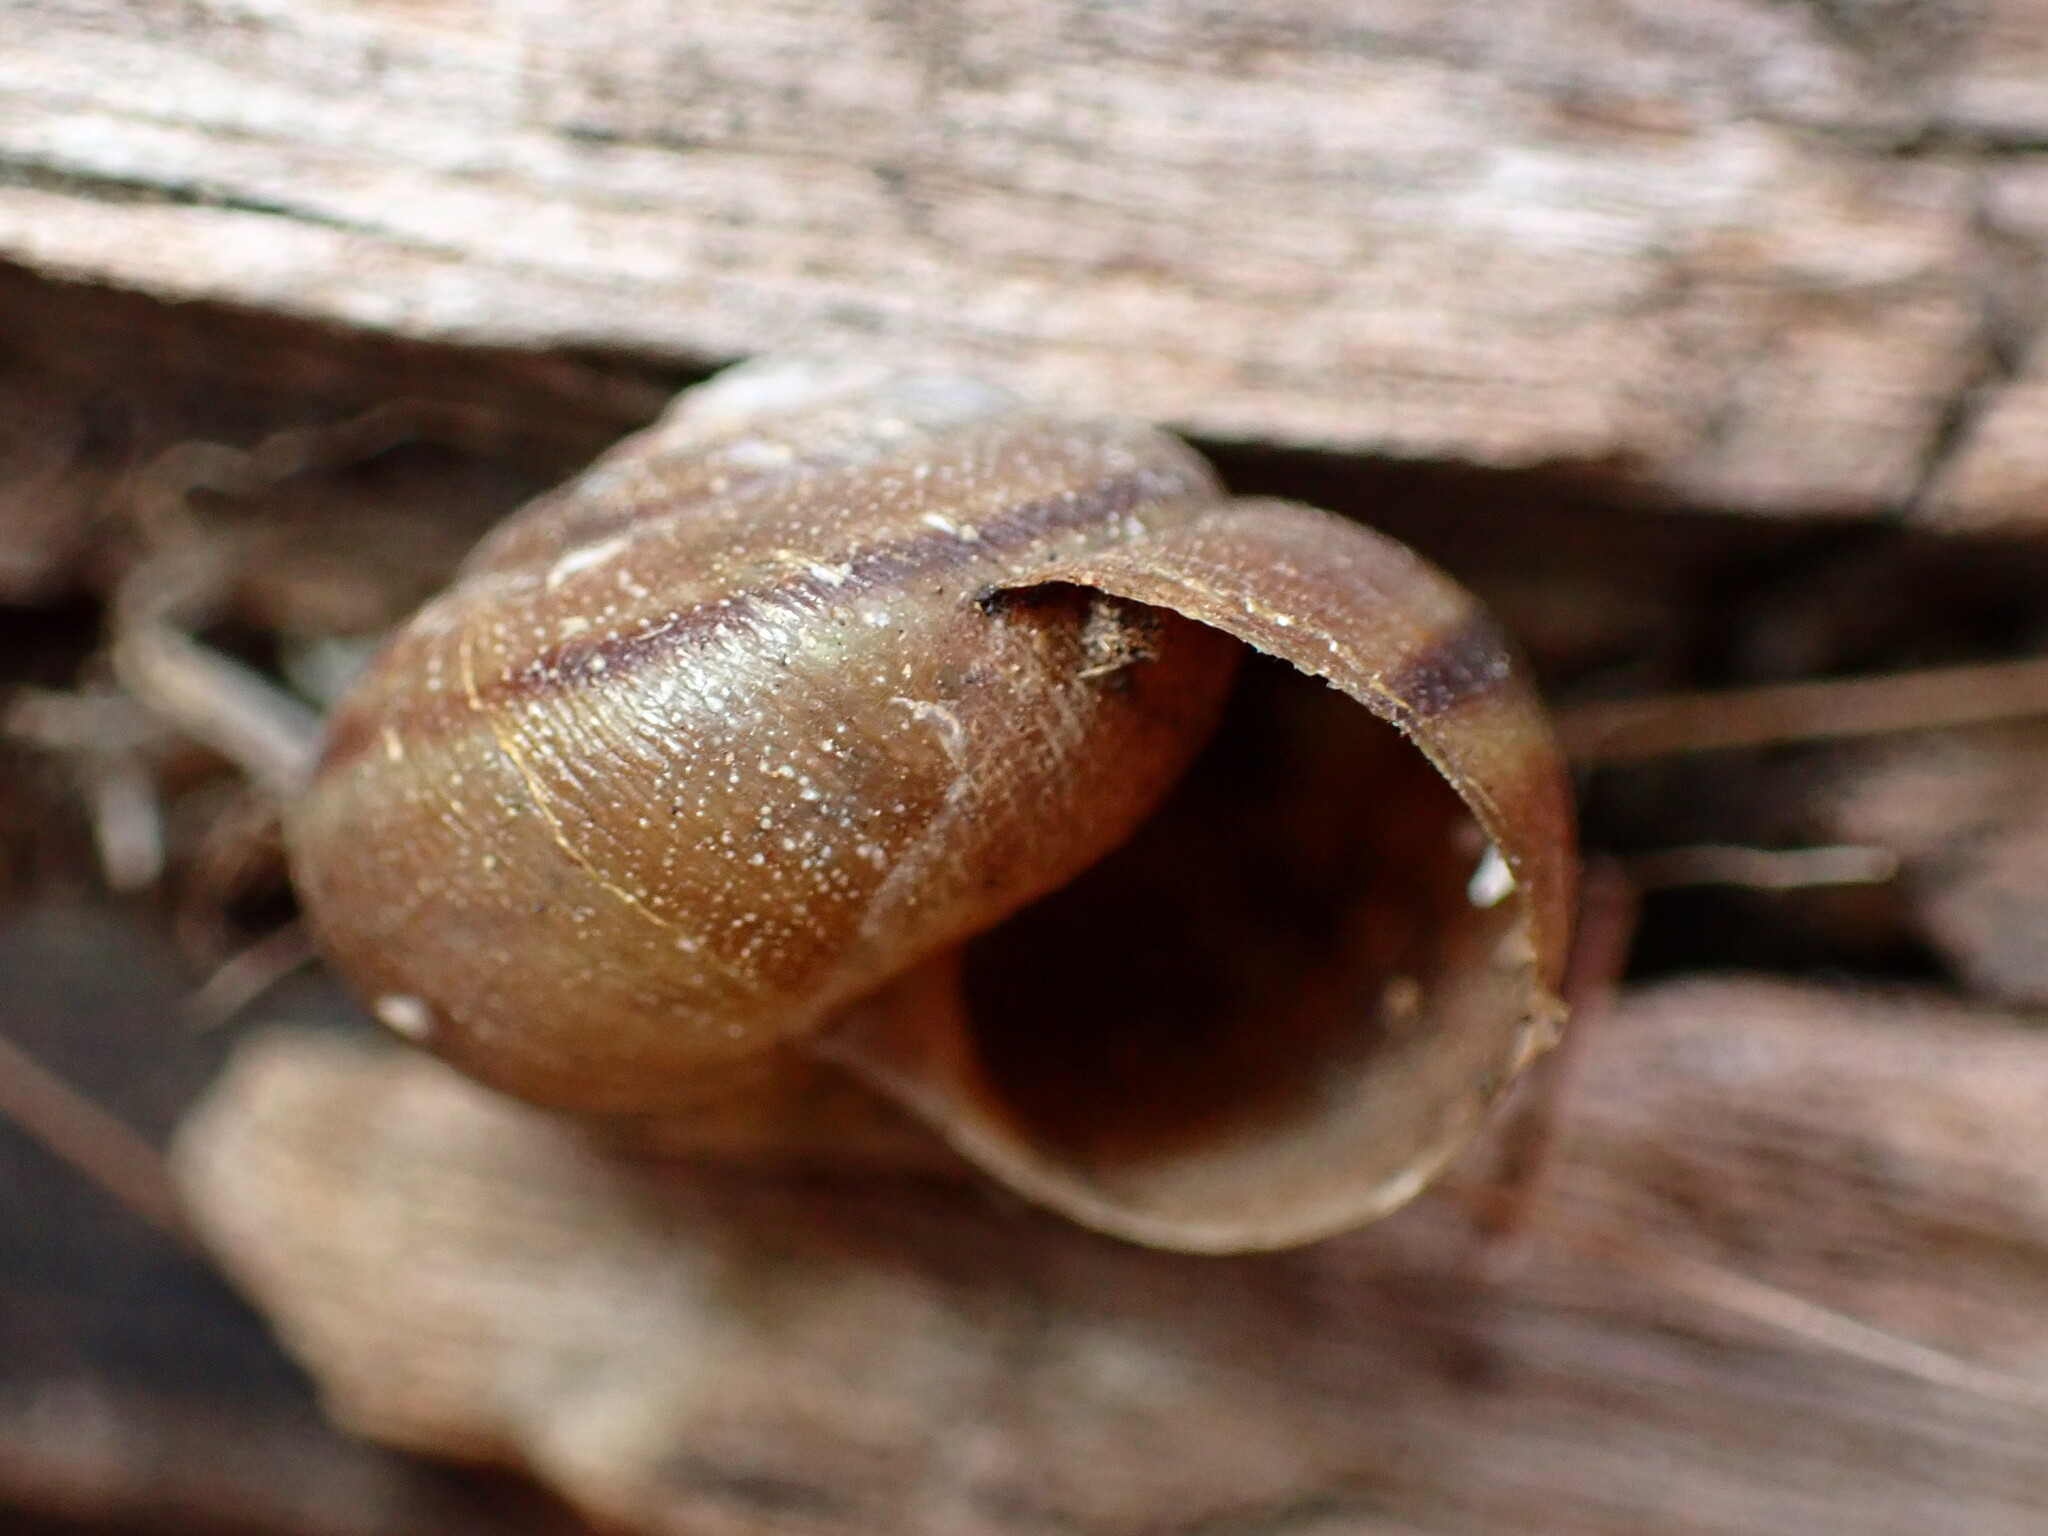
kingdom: Animalia
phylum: Mollusca
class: Gastropoda
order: Stylommatophora
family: Xanthonychidae
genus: Helminthoglypta
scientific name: Helminthoglypta walkeriana
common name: Banded dune snail
